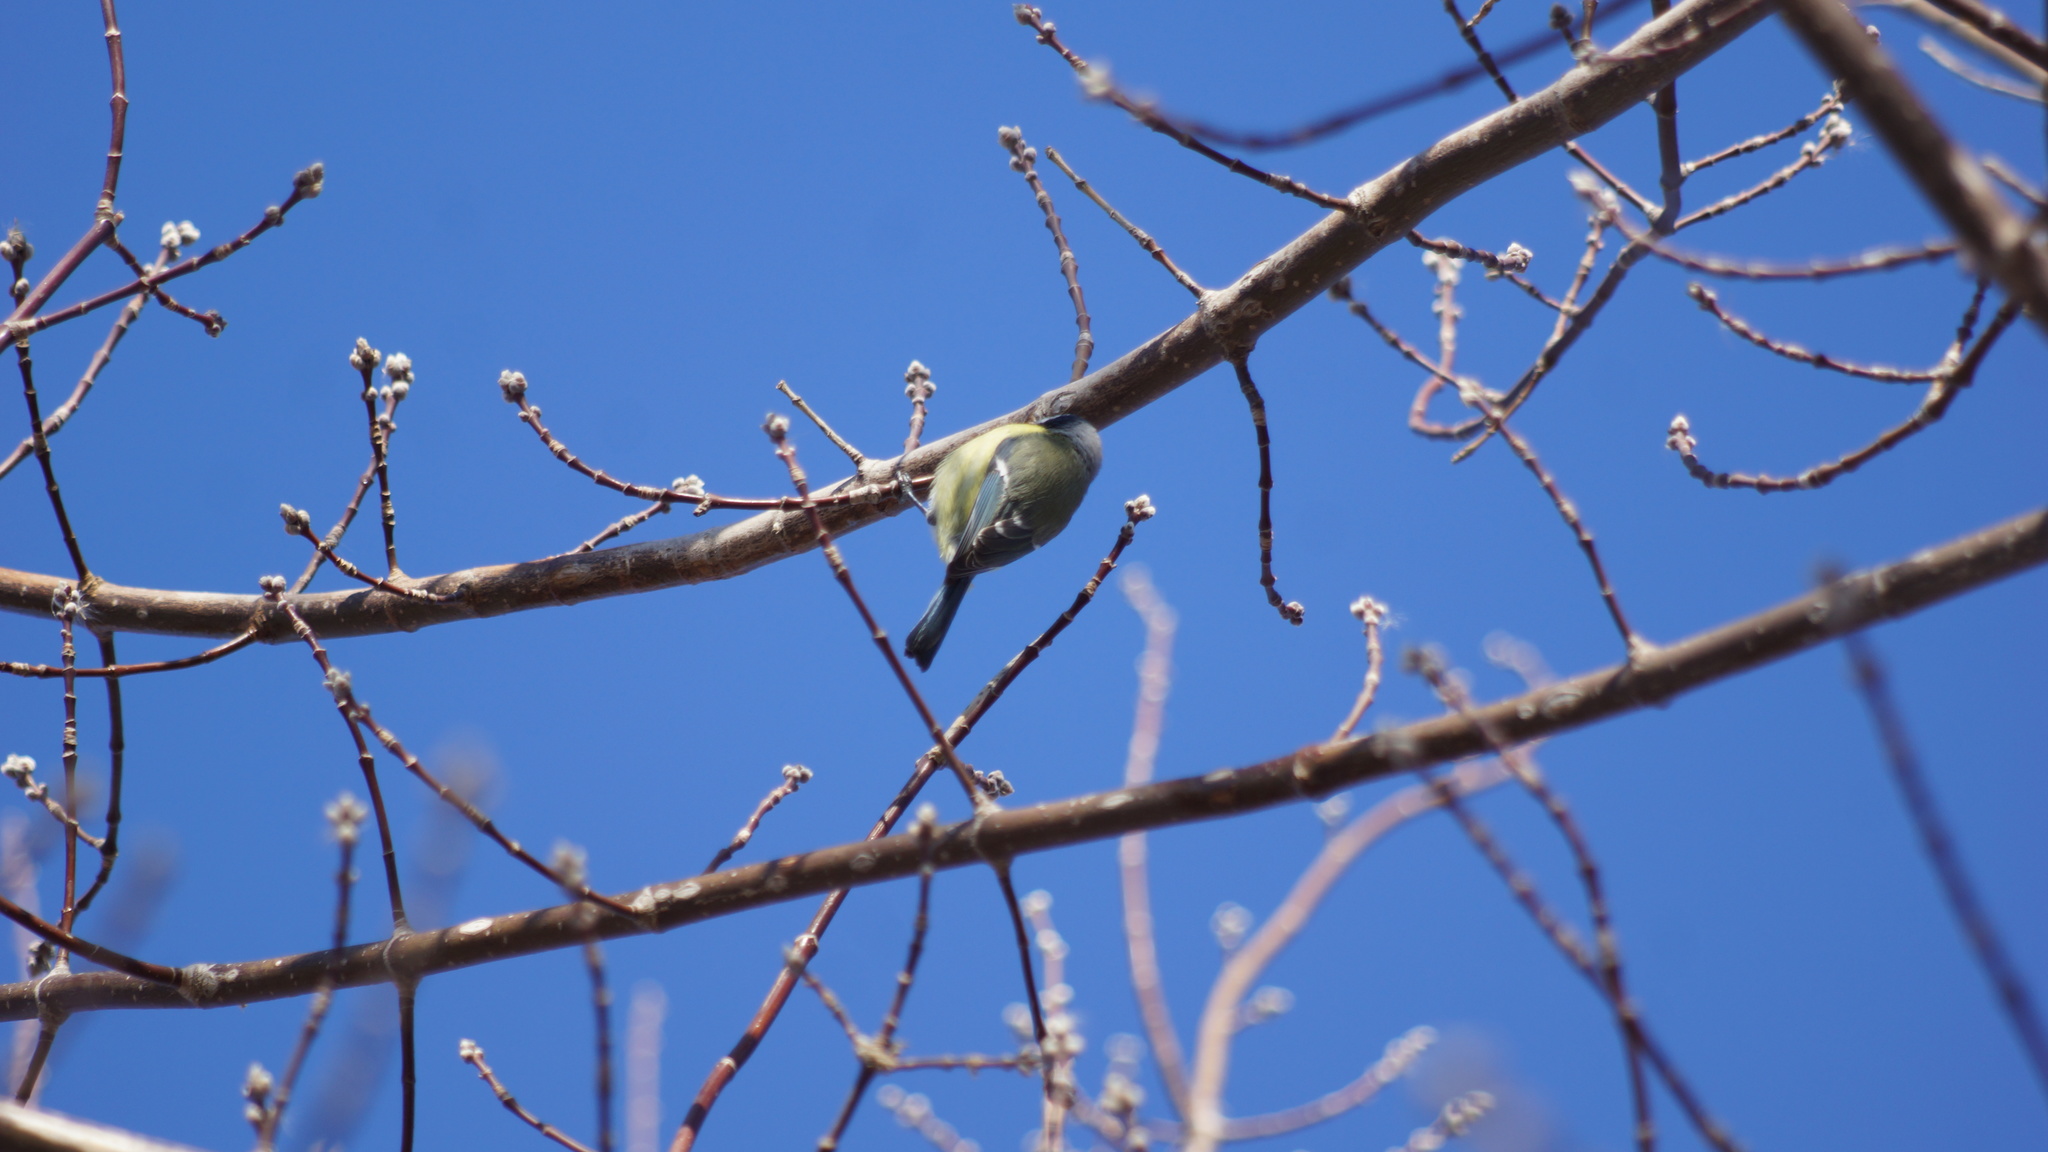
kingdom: Animalia
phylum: Chordata
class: Aves
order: Passeriformes
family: Paridae
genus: Cyanistes
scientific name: Cyanistes caeruleus
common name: Eurasian blue tit
